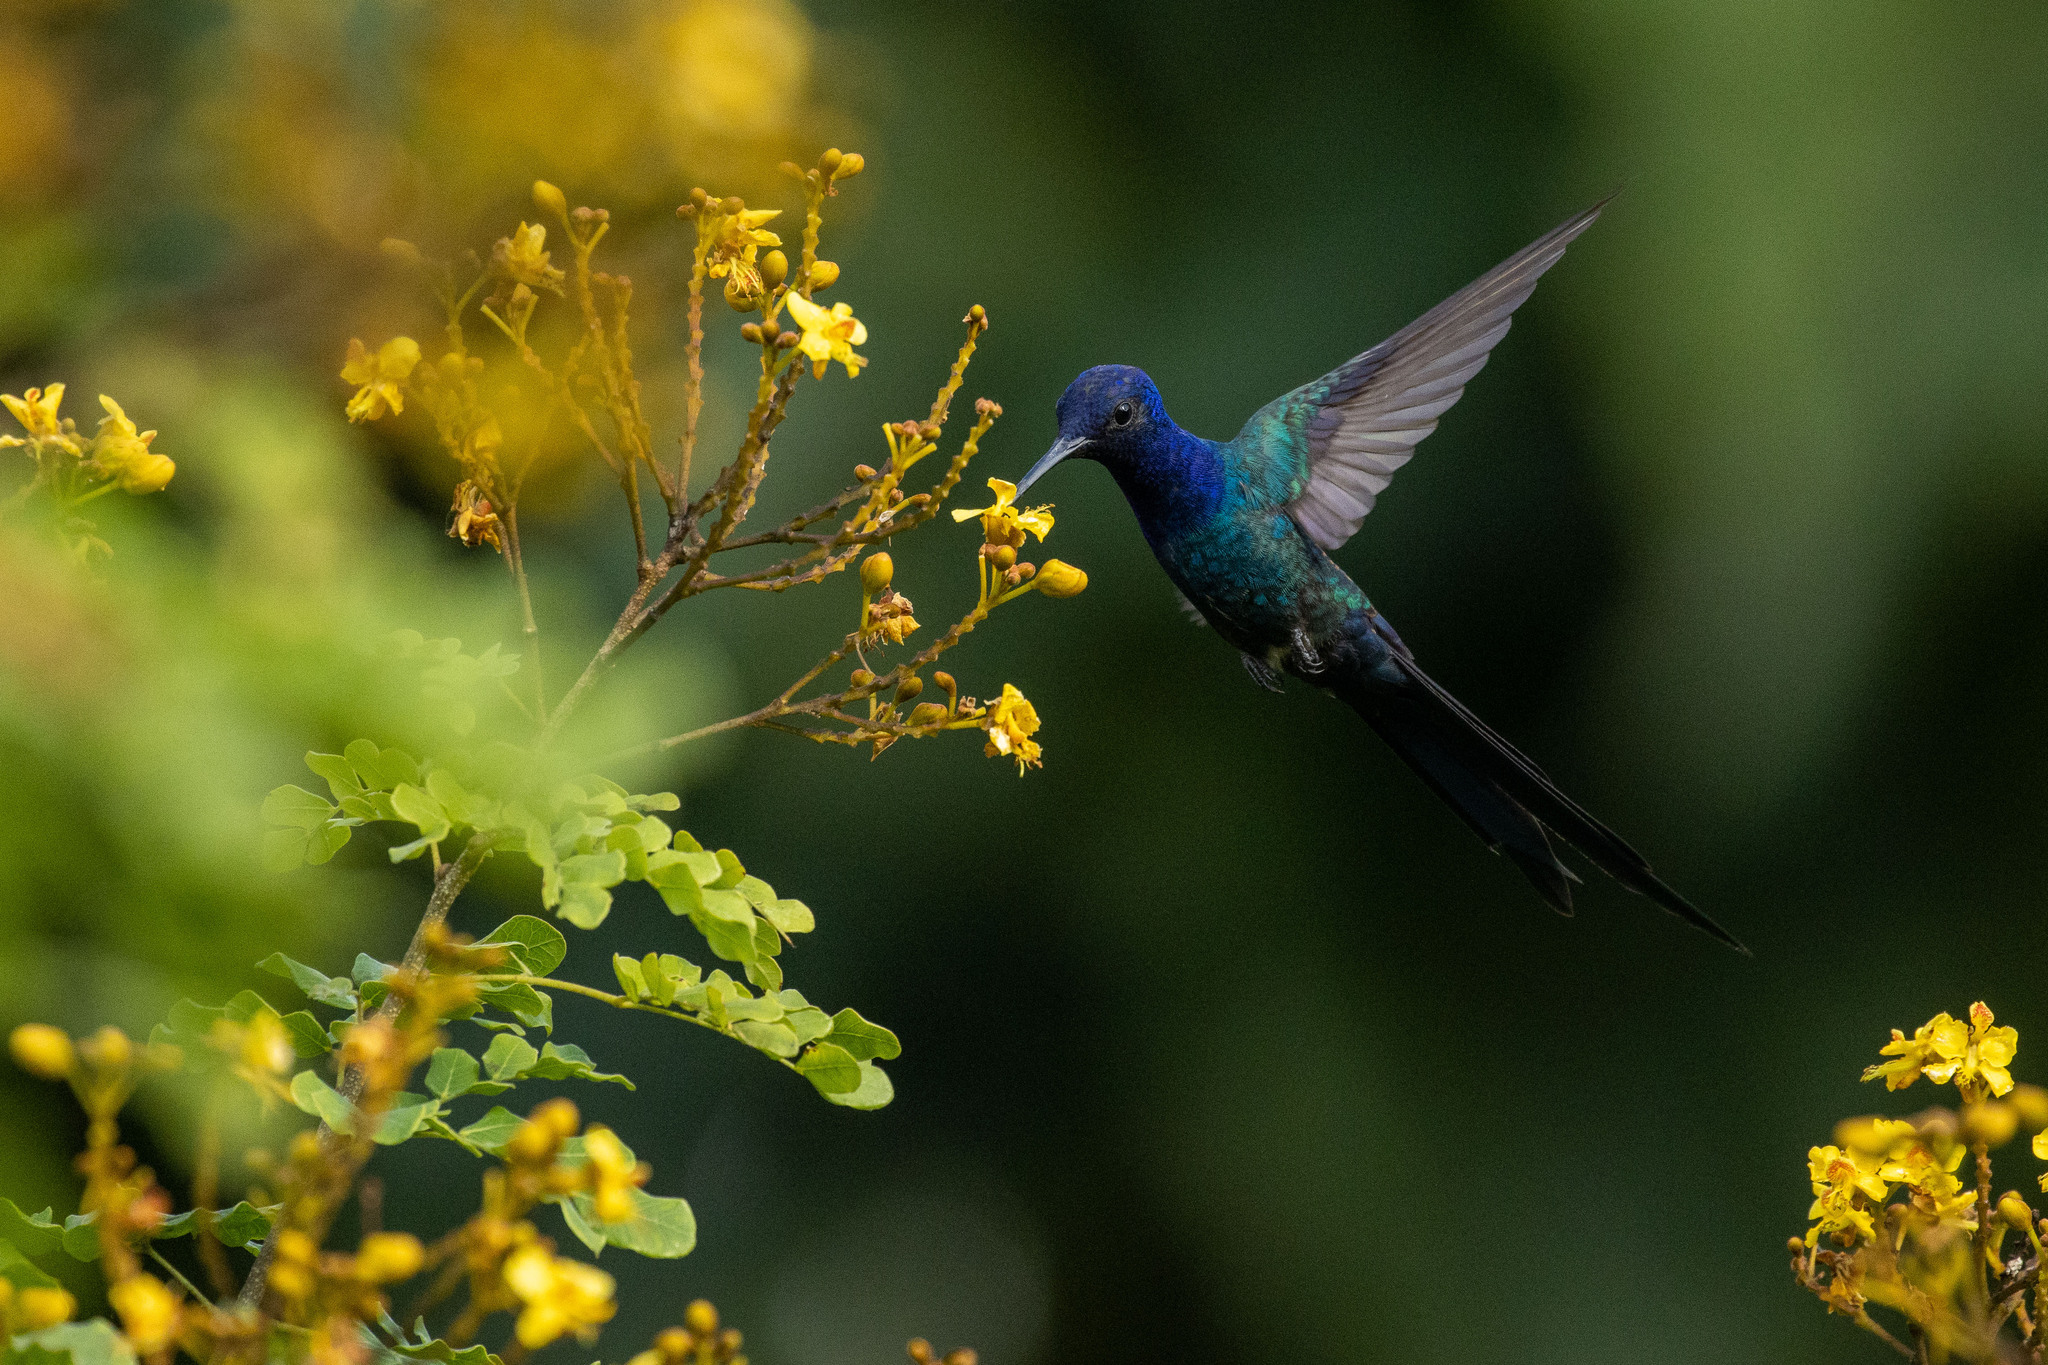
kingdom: Animalia
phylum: Chordata
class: Aves
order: Apodiformes
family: Trochilidae
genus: Eupetomena
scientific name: Eupetomena macroura
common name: Swallow-tailed hummingbird
